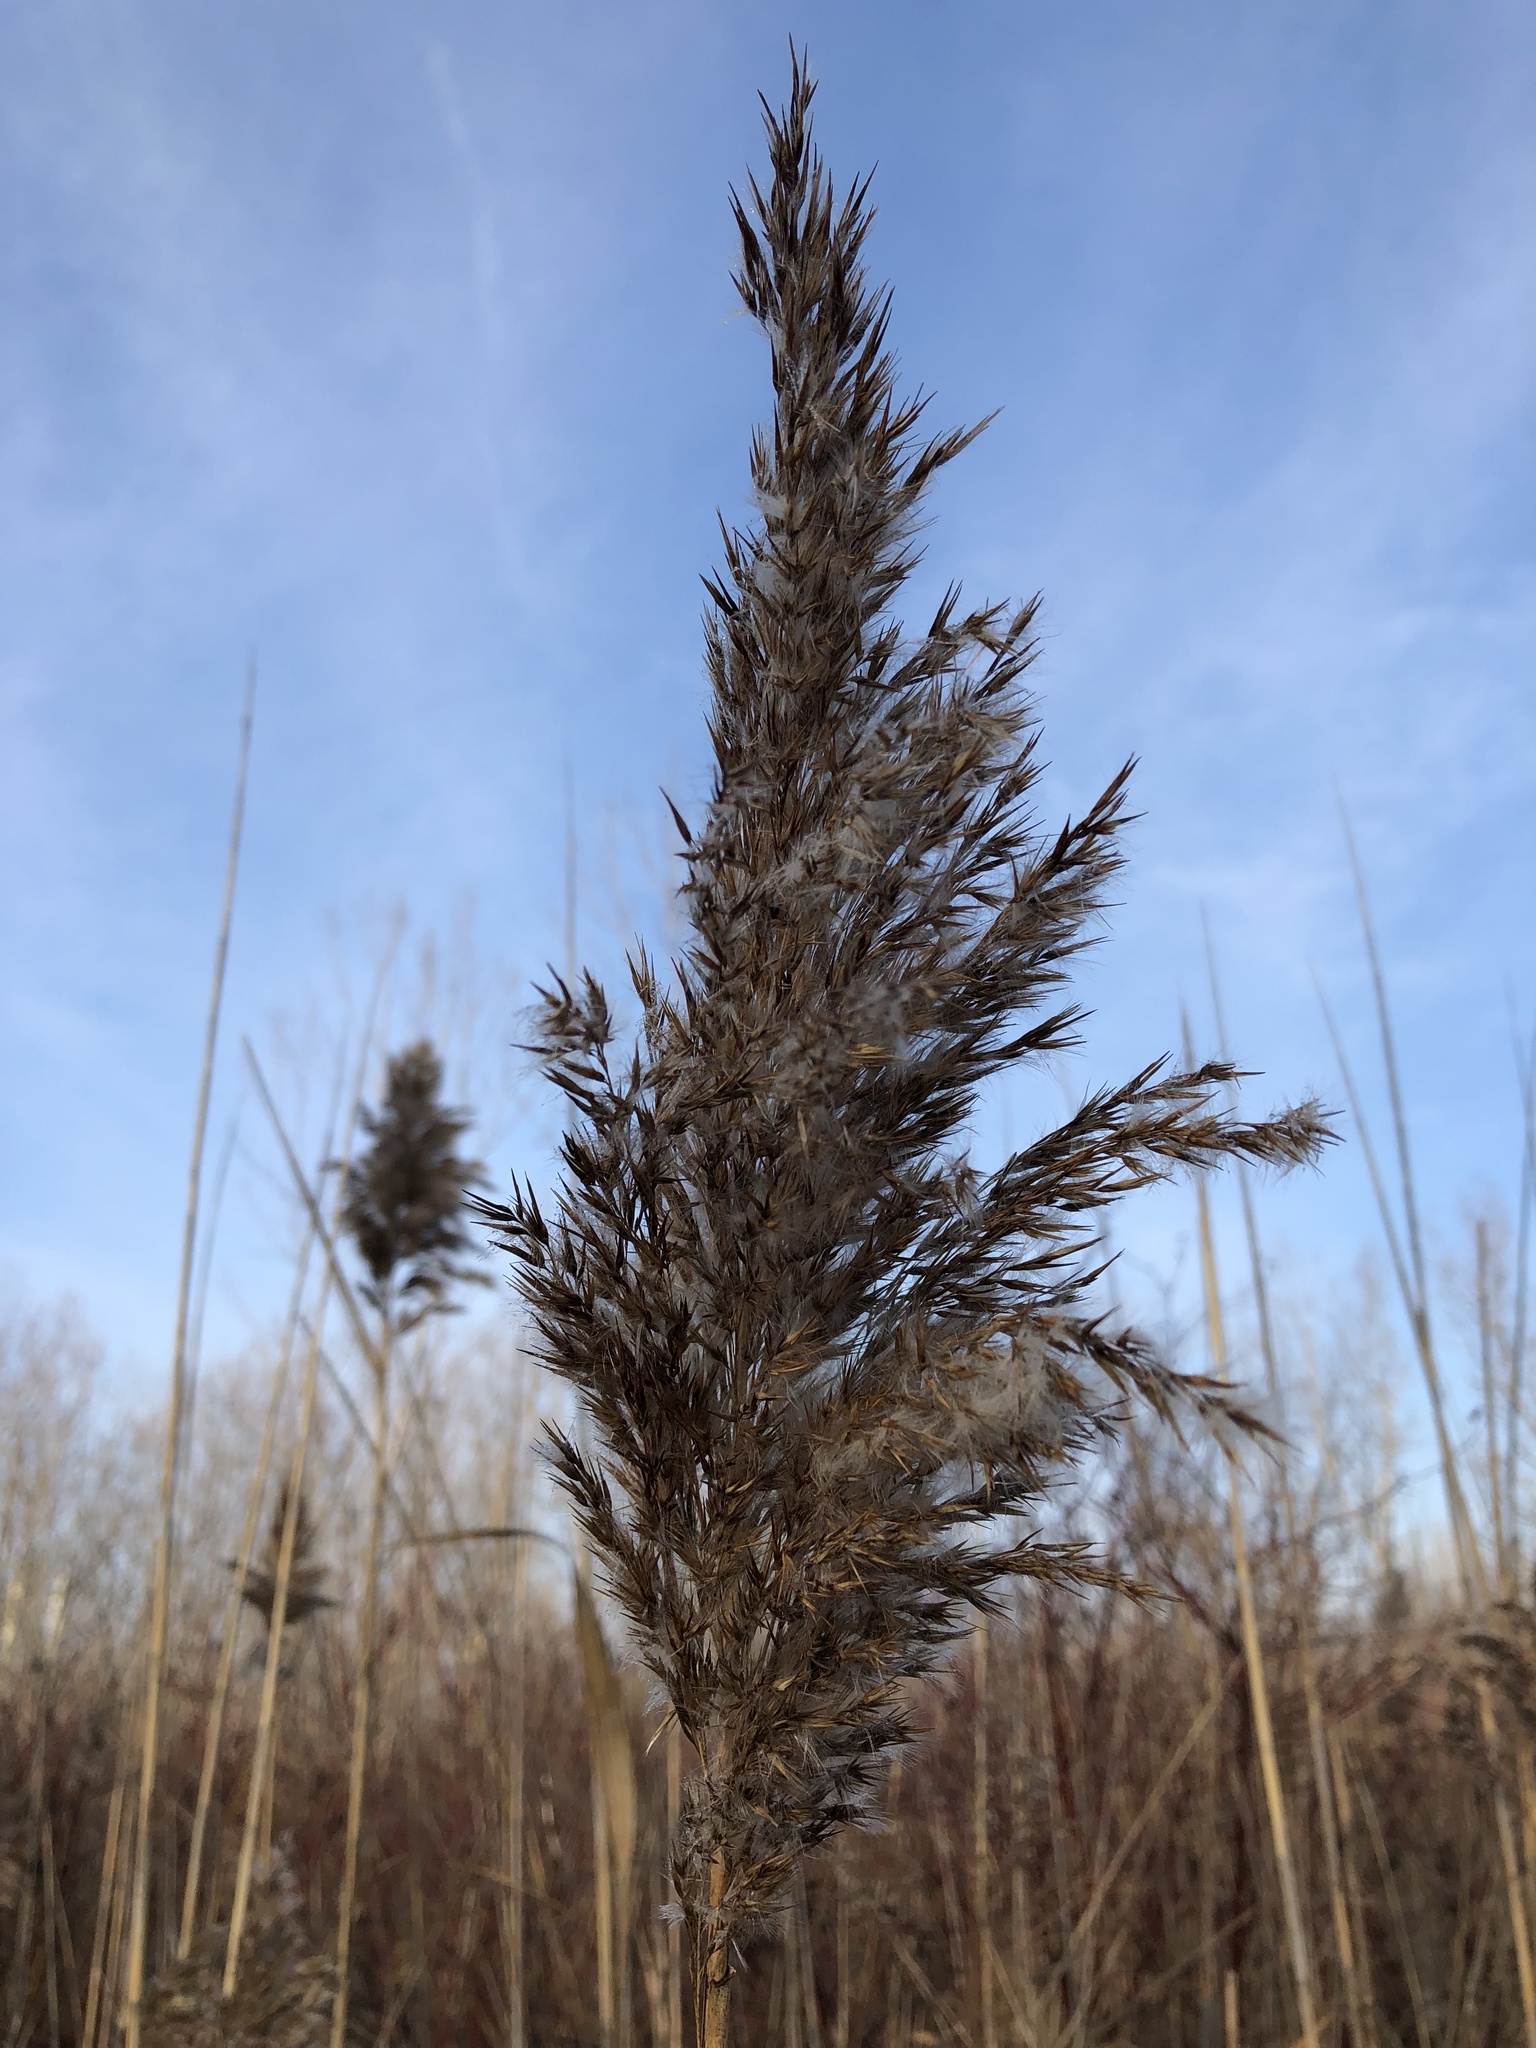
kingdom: Plantae
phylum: Tracheophyta
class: Liliopsida
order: Poales
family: Poaceae
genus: Phragmites
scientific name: Phragmites australis
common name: Common reed
